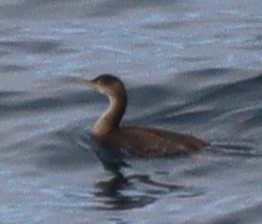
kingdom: Animalia
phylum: Chordata
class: Aves
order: Suliformes
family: Phalacrocoracidae
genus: Phalacrocorax
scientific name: Phalacrocorax aristotelis
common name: European shag
